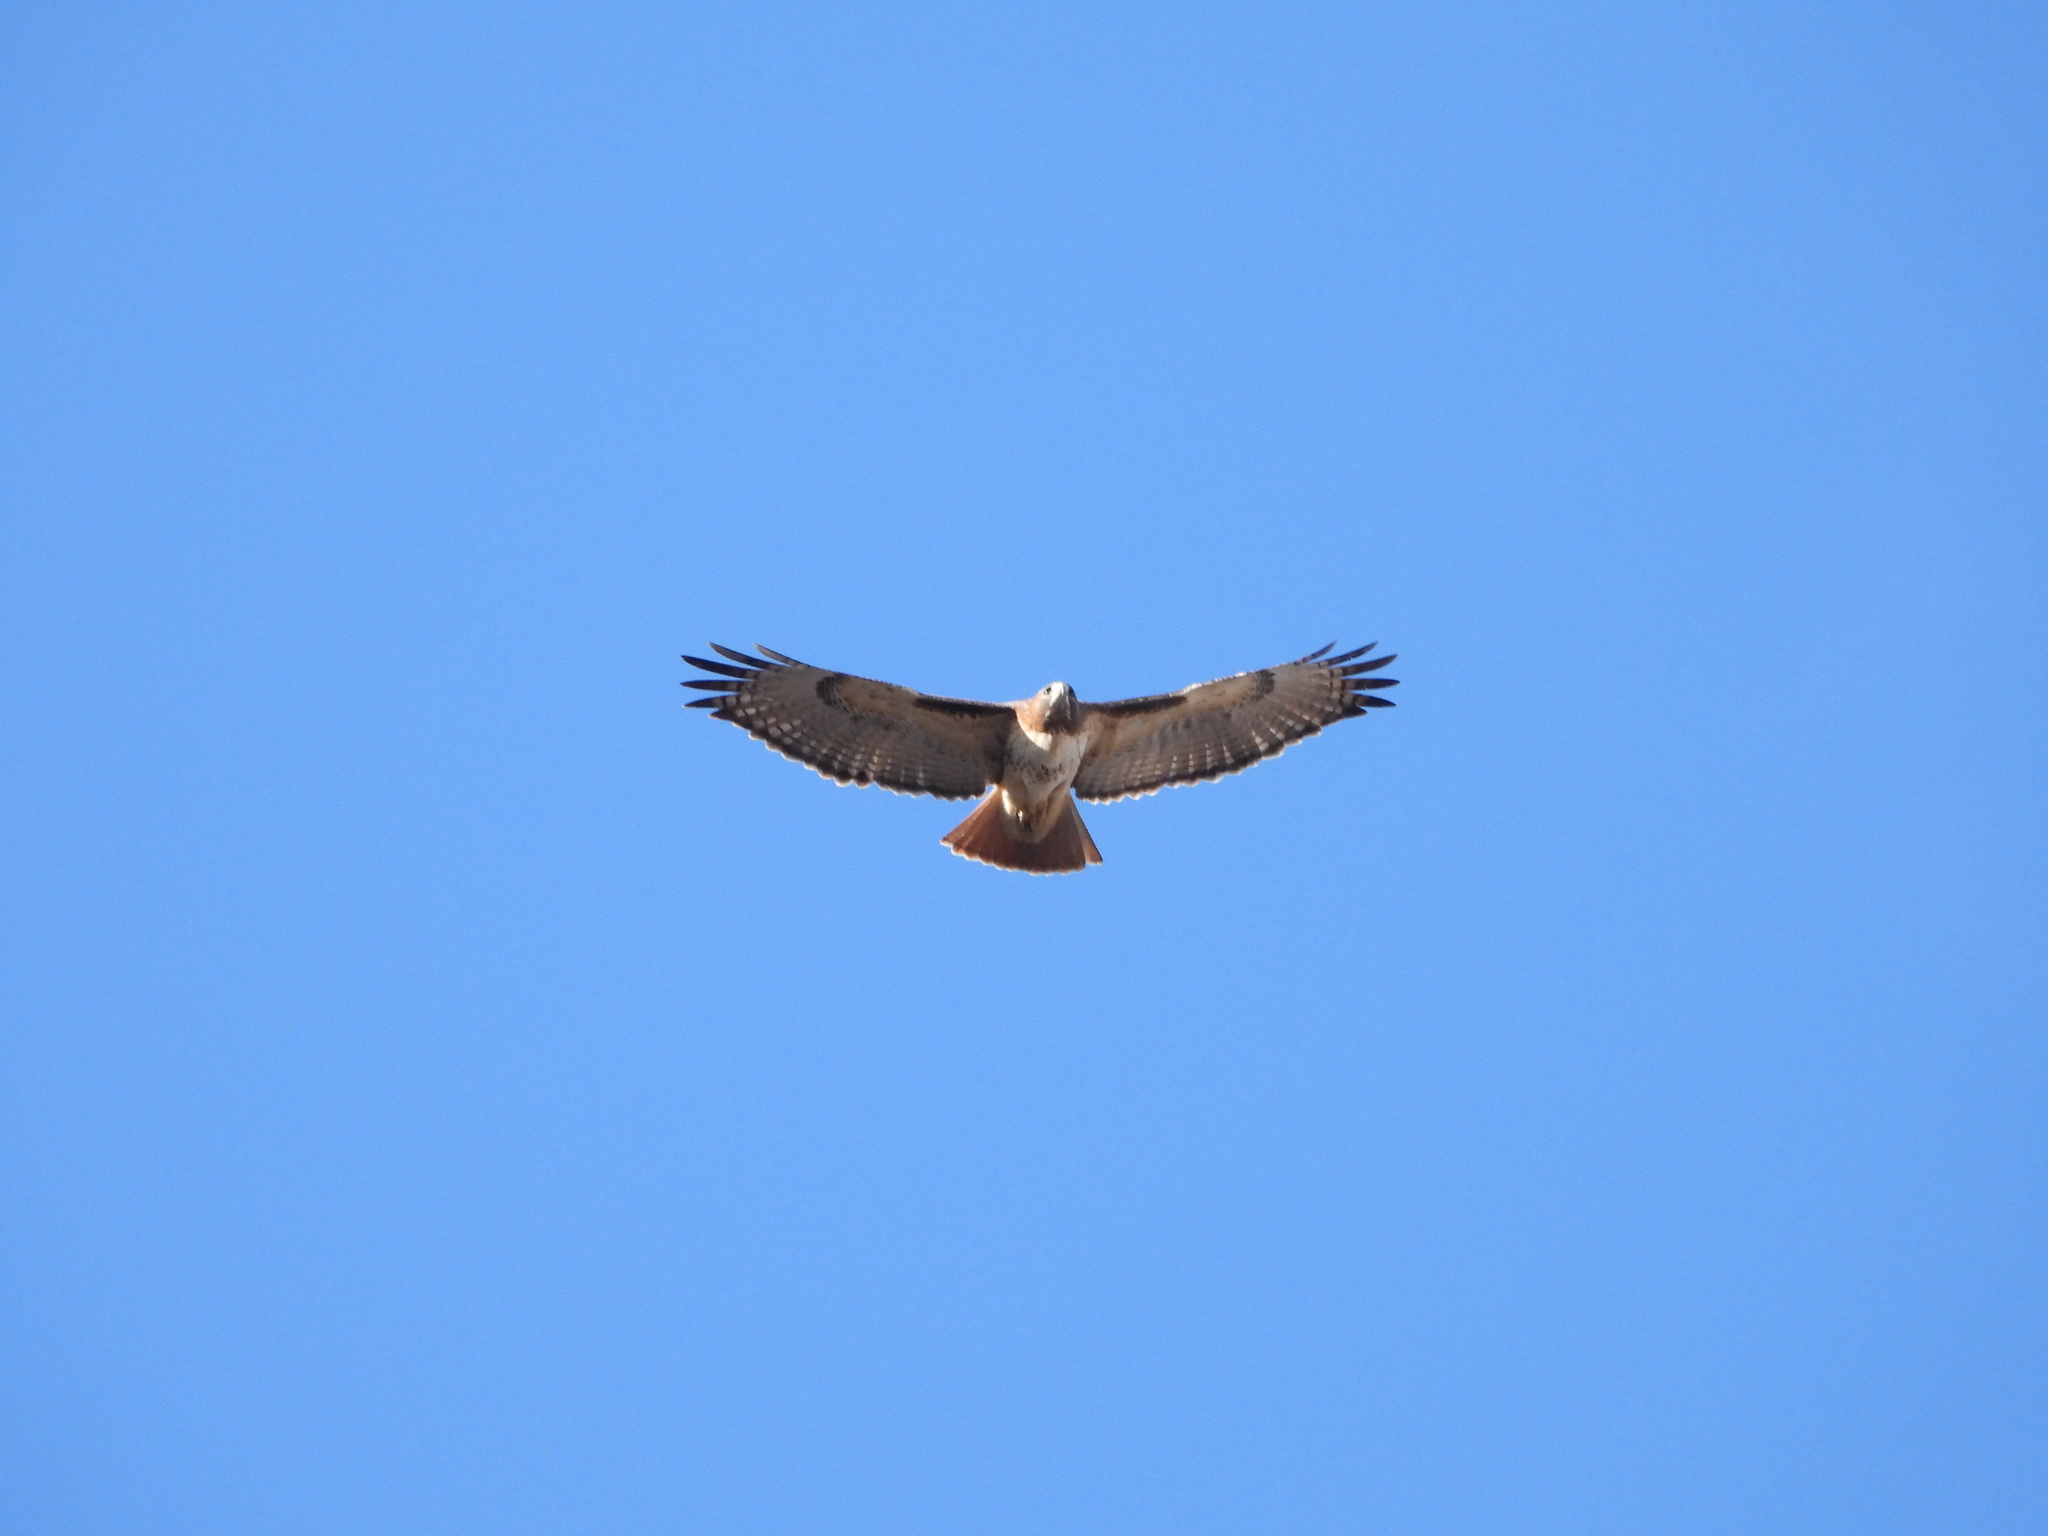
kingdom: Animalia
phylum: Chordata
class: Aves
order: Accipitriformes
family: Accipitridae
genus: Buteo
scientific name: Buteo jamaicensis
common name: Red-tailed hawk
